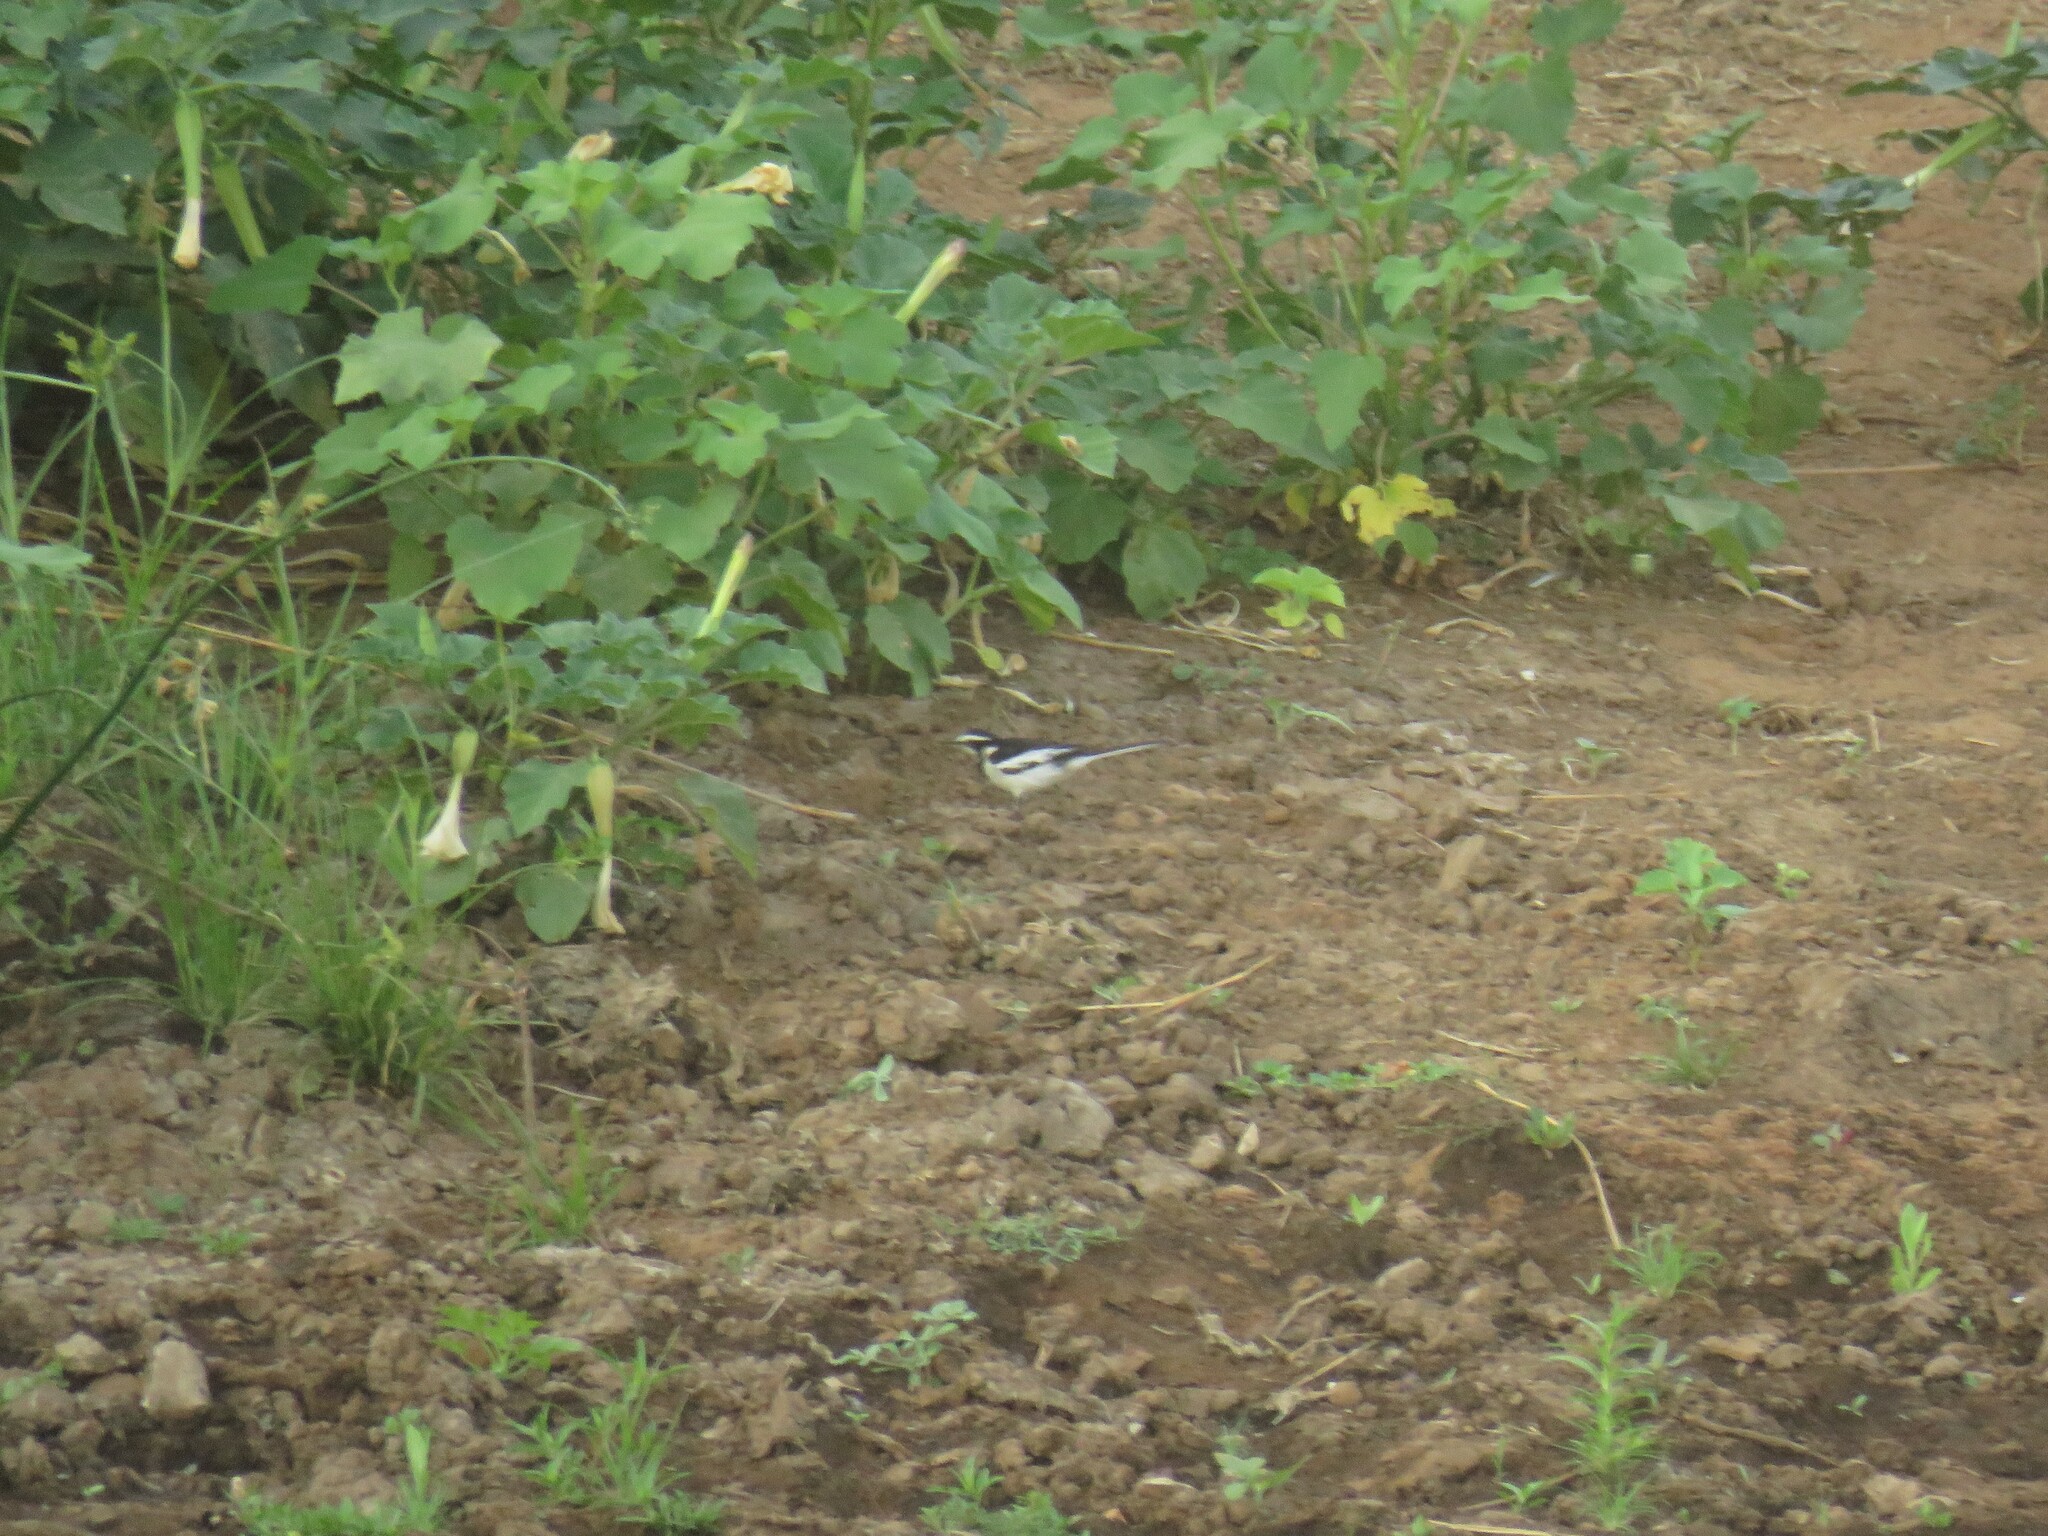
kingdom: Animalia
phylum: Chordata
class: Aves
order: Passeriformes
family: Motacillidae
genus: Motacilla
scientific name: Motacilla aguimp
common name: African pied wagtail
